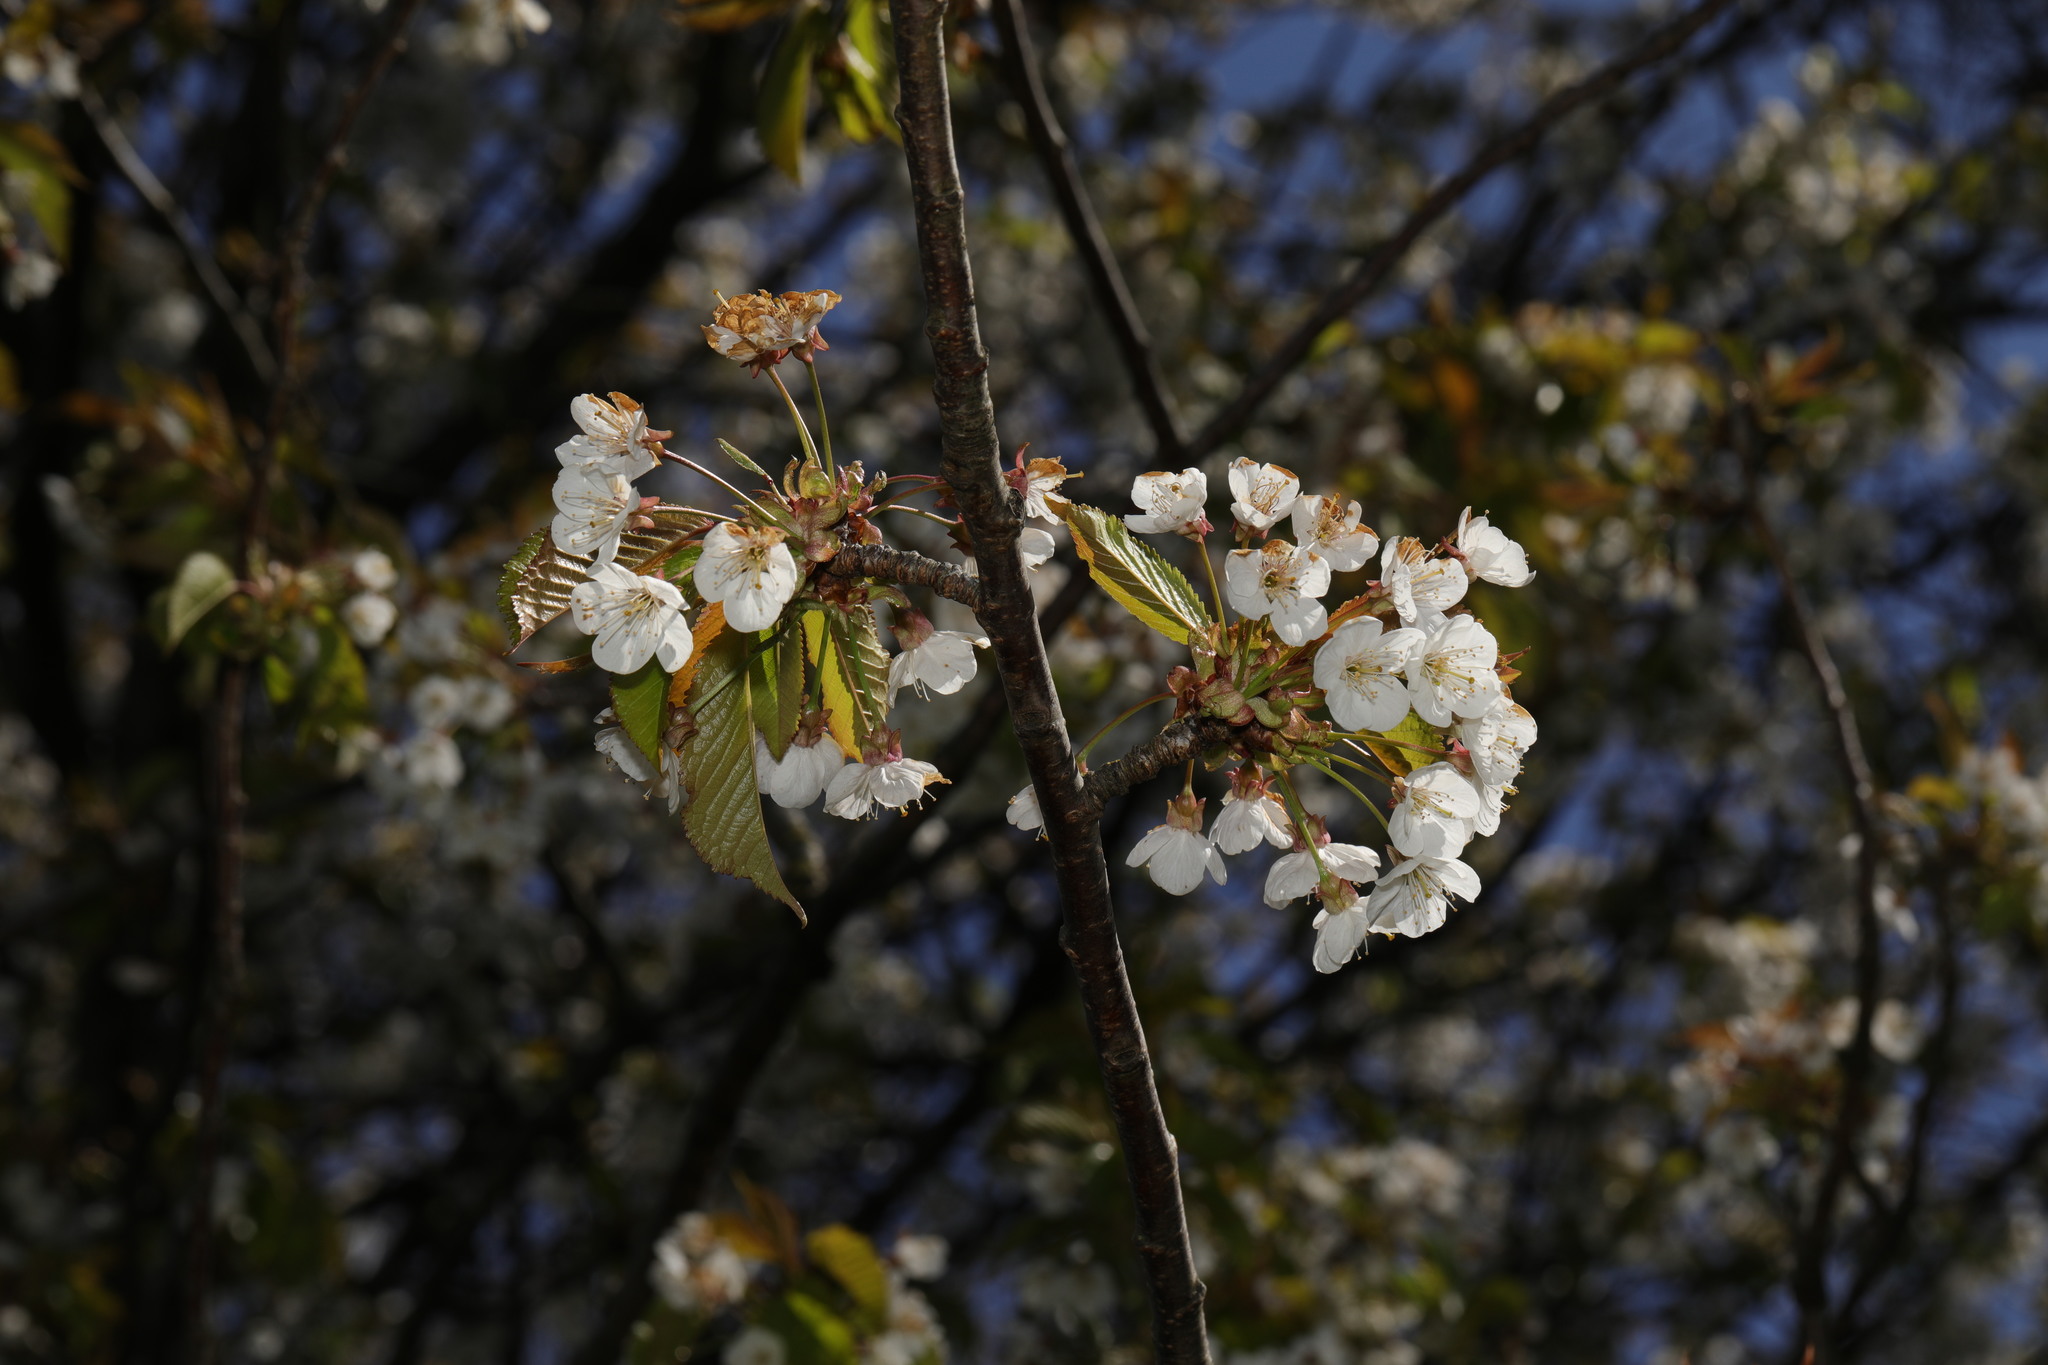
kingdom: Plantae
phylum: Tracheophyta
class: Magnoliopsida
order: Rosales
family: Rosaceae
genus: Prunus
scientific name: Prunus avium
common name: Sweet cherry
